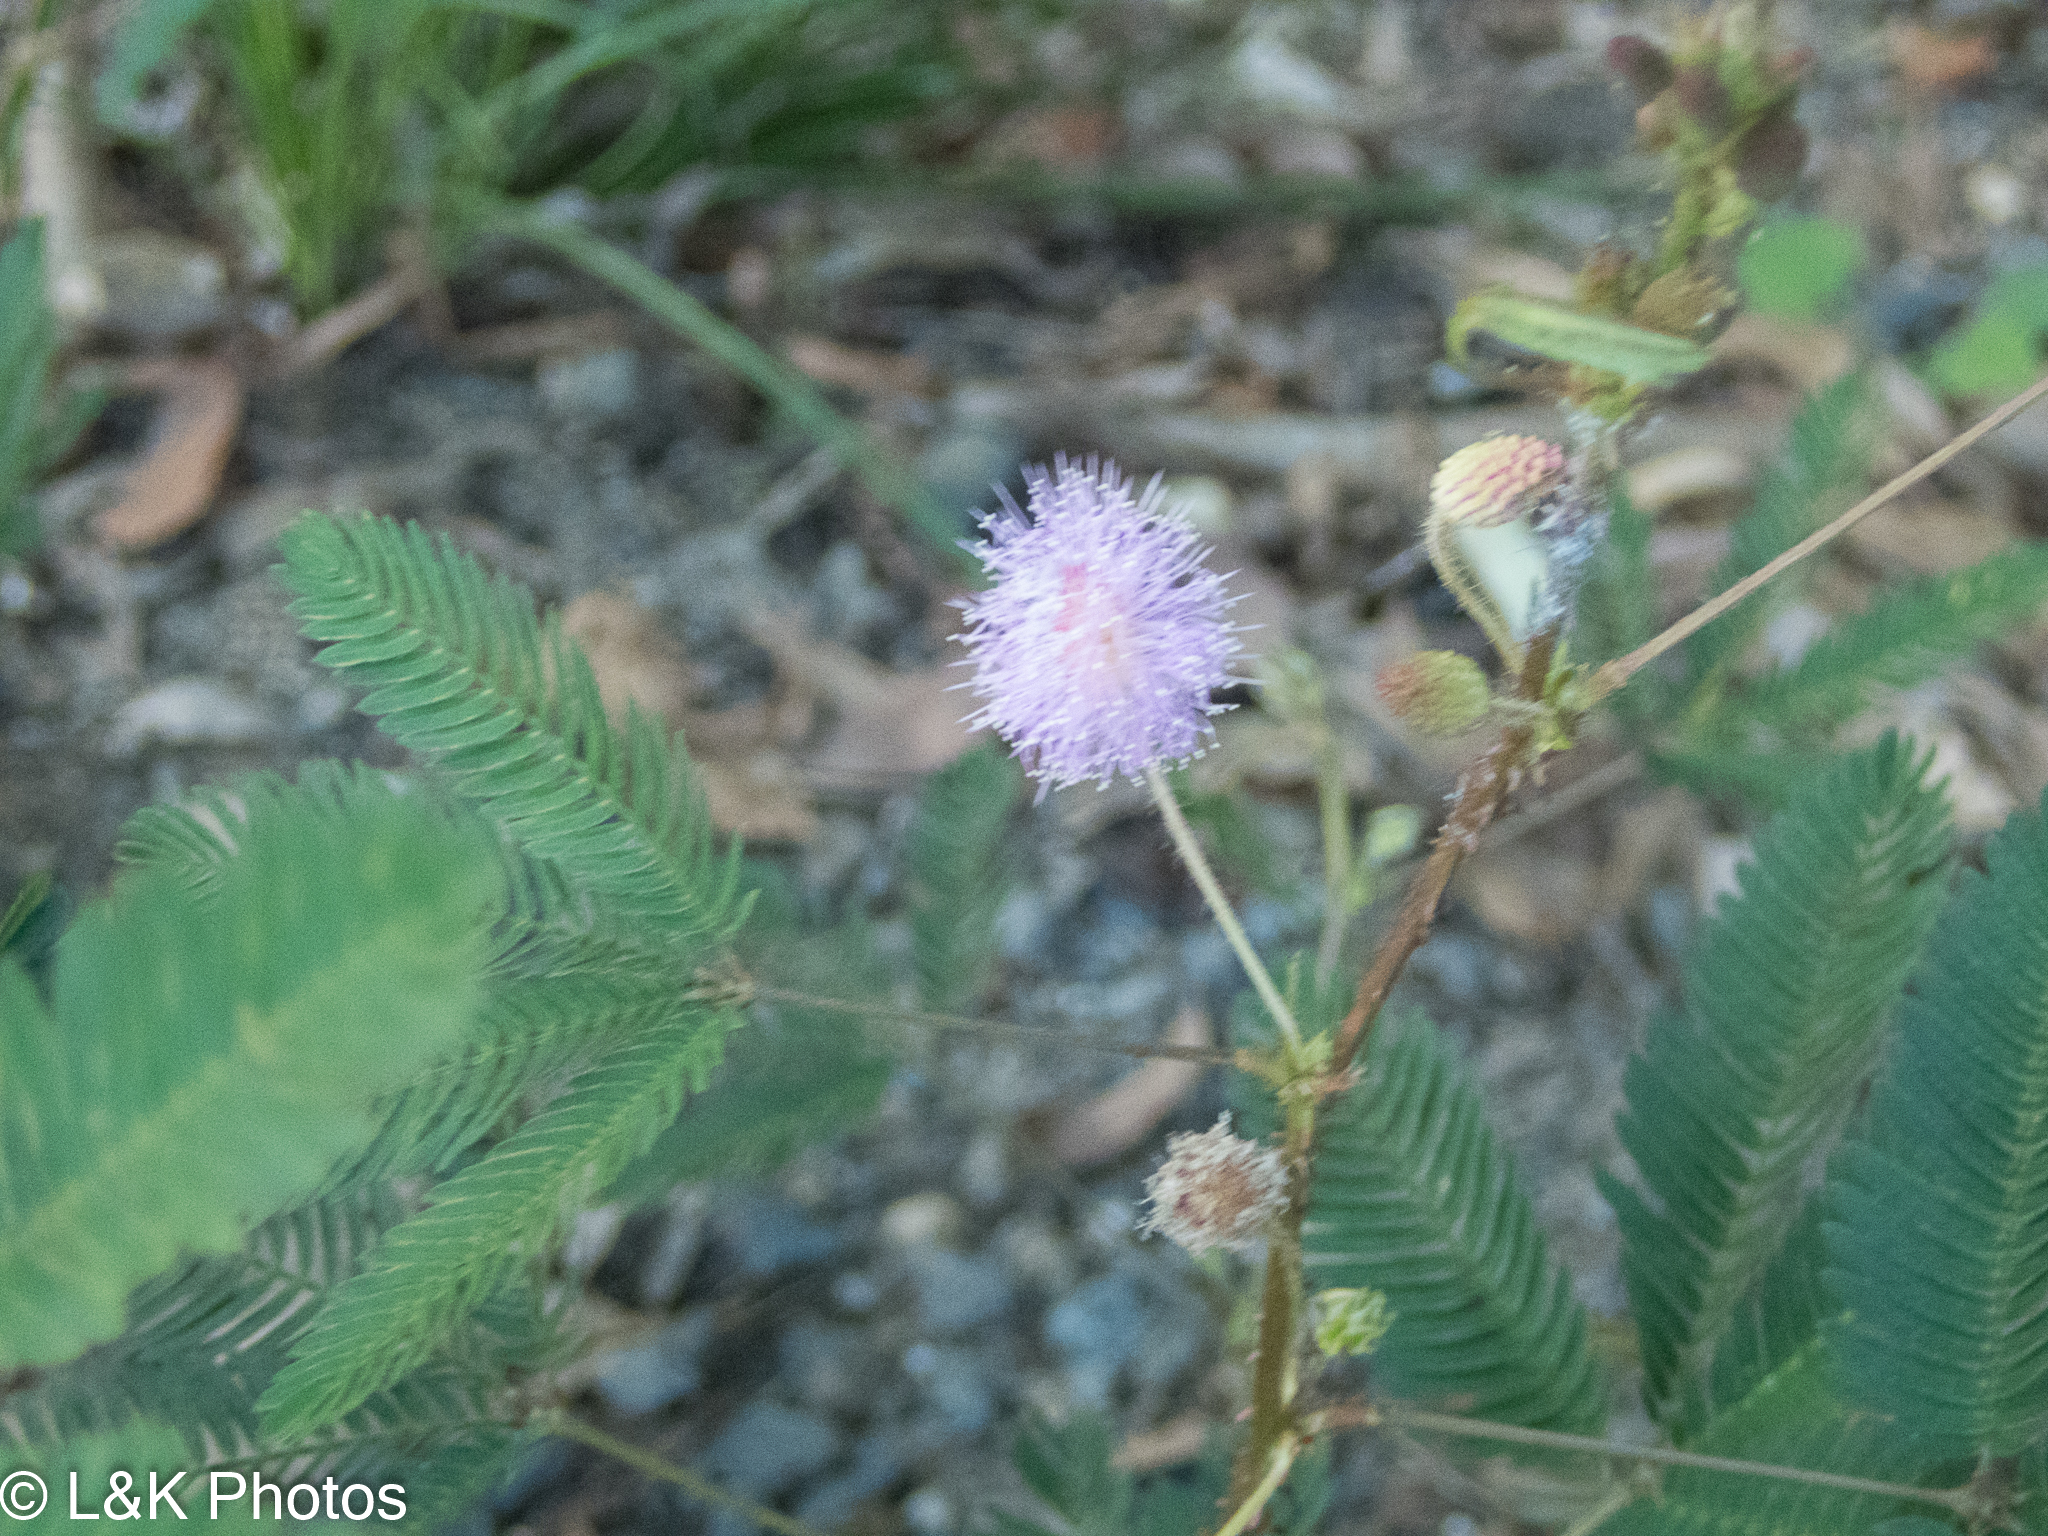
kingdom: Plantae
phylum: Tracheophyta
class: Magnoliopsida
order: Fabales
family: Fabaceae
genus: Mimosa
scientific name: Mimosa pudica
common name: Sensitive plant
